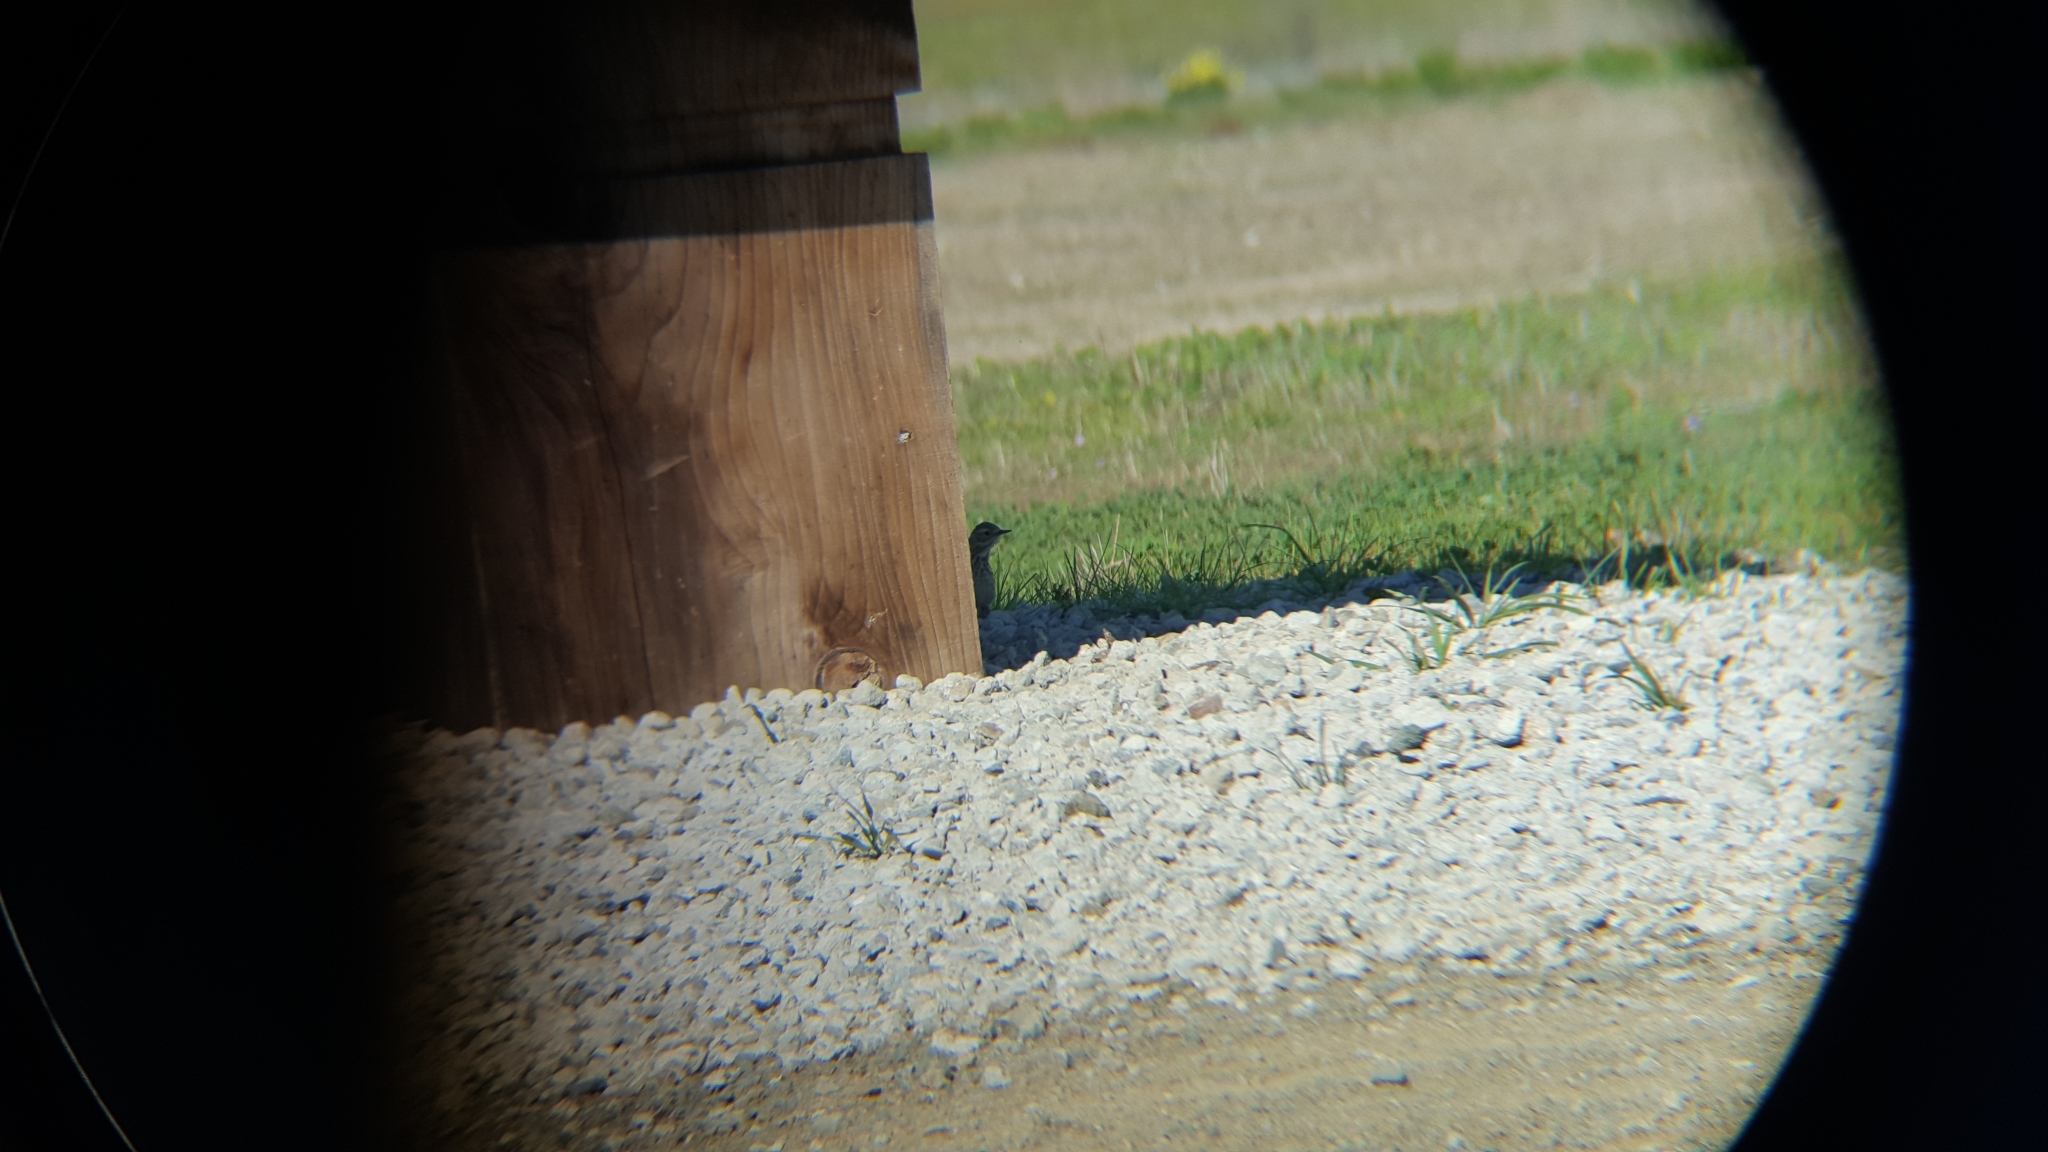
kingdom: Animalia
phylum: Chordata
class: Aves
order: Passeriformes
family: Motacillidae
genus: Anthus
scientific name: Anthus rubescens
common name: Buff-bellied pipit
